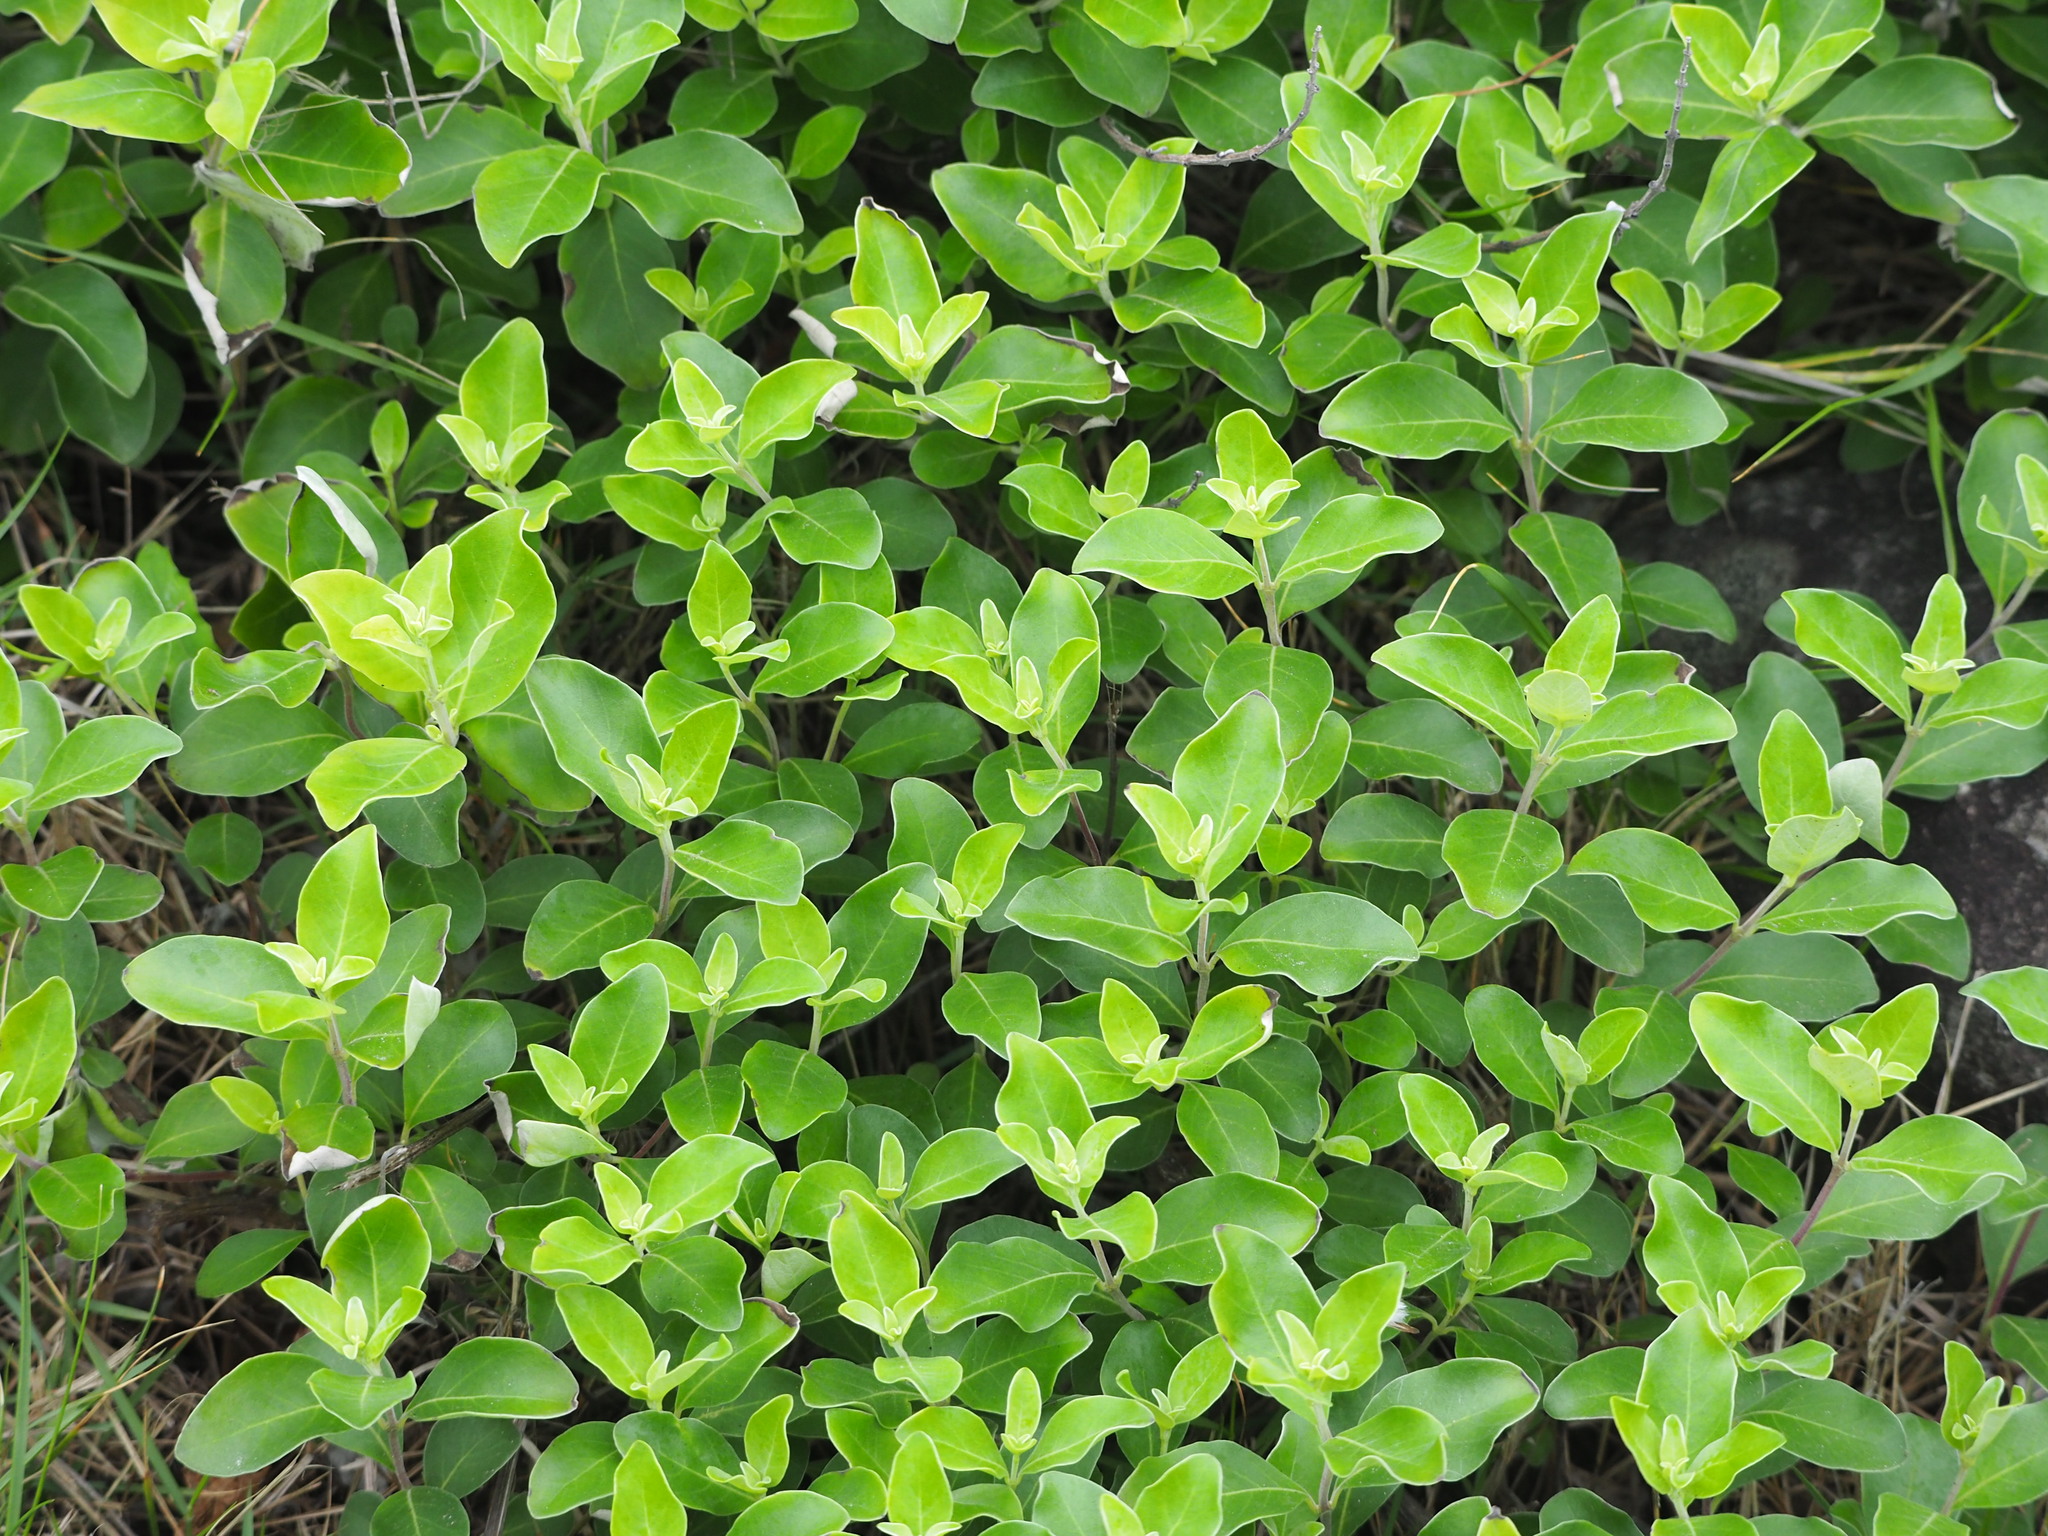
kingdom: Plantae
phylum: Tracheophyta
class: Magnoliopsida
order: Lamiales
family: Lamiaceae
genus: Vitex
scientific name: Vitex rotundifolia
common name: Beach vitex
